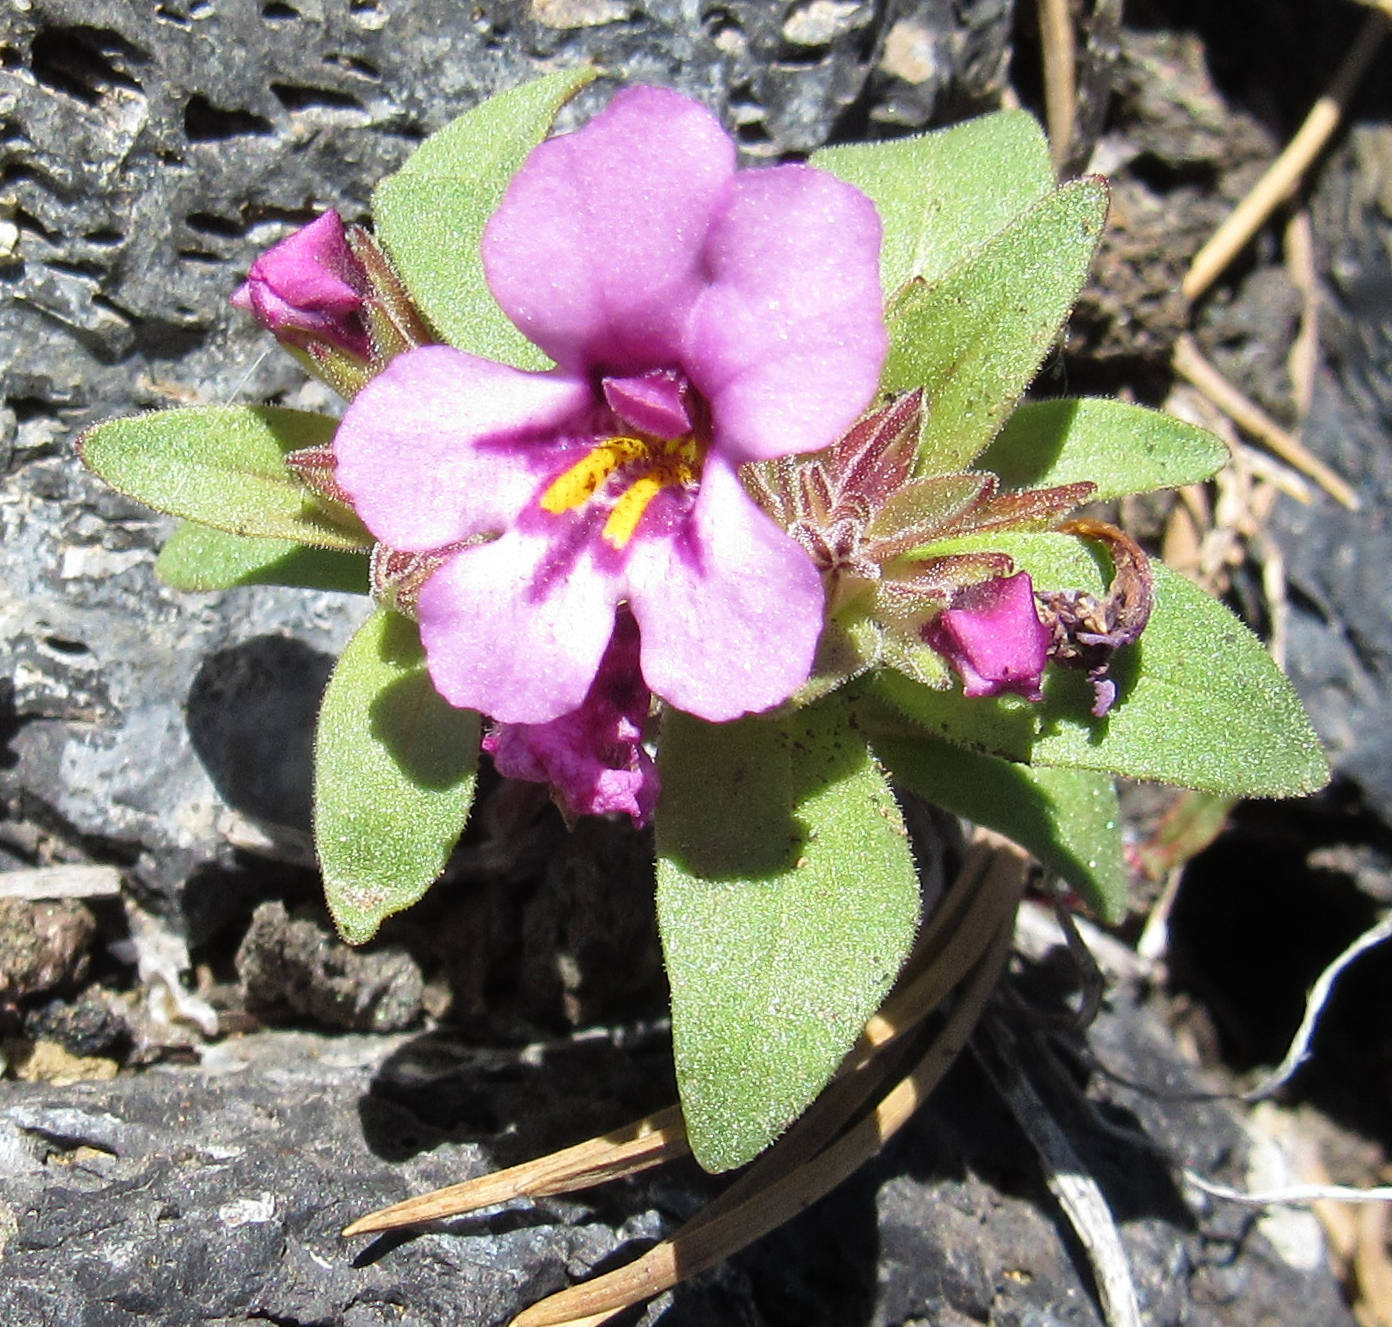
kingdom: Plantae
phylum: Tracheophyta
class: Magnoliopsida
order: Lamiales
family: Phrymaceae
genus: Diplacus
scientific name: Diplacus nanus
